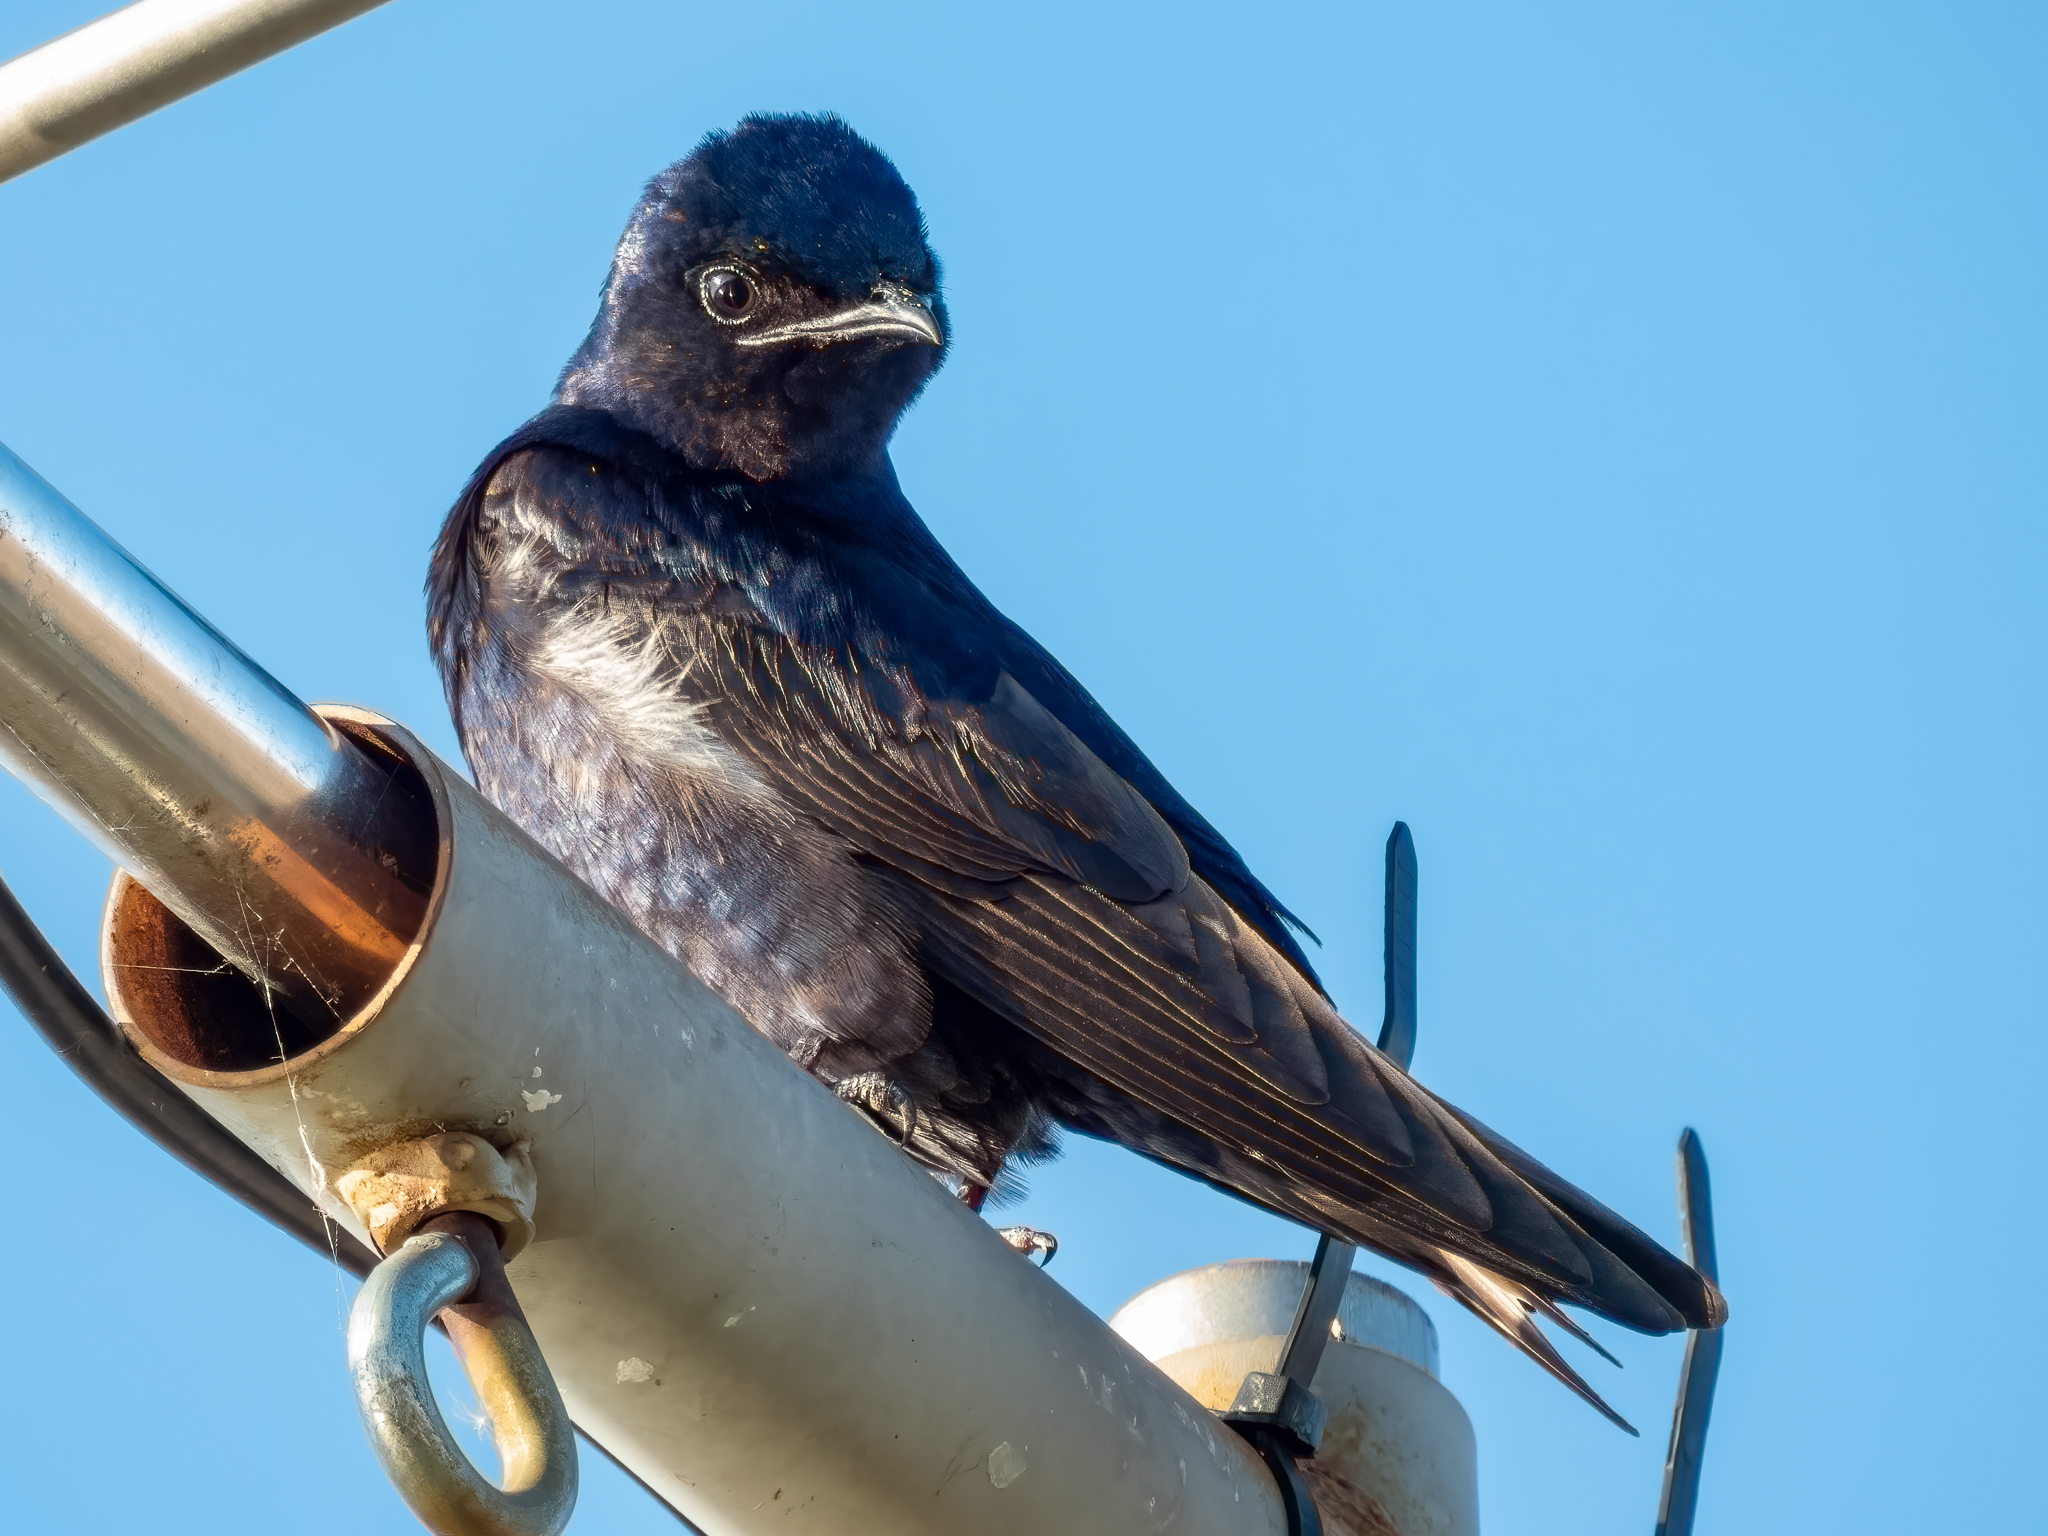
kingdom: Animalia
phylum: Chordata
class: Aves
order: Passeriformes
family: Hirundinidae
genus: Progne
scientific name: Progne subis
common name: Purple martin
